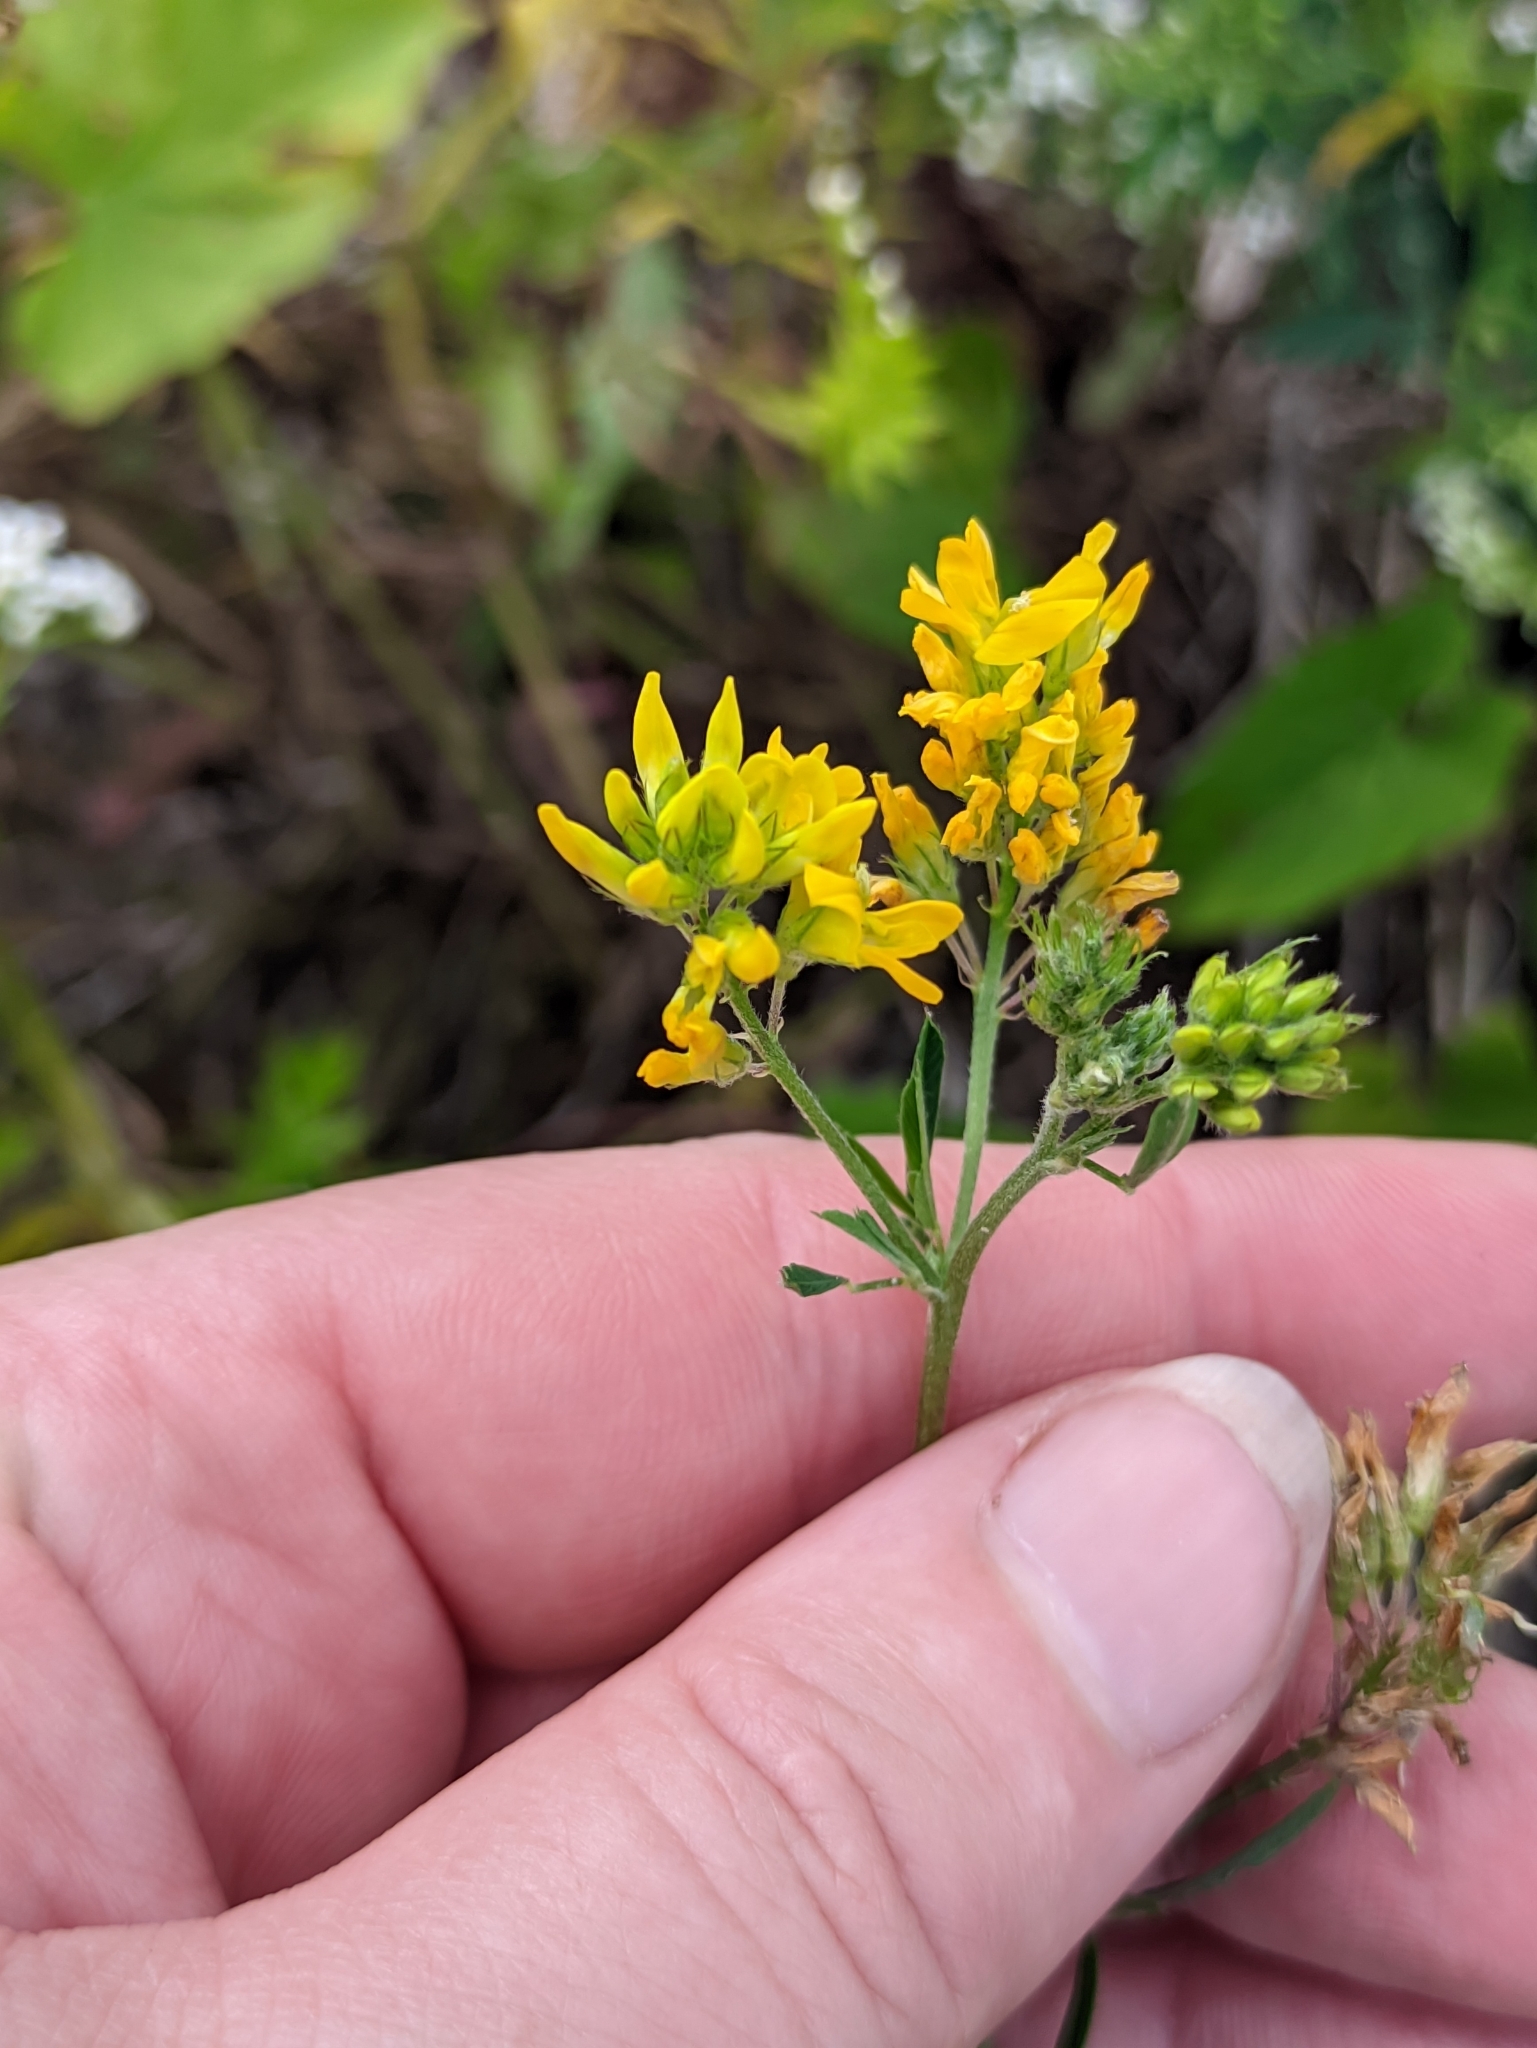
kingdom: Plantae
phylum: Tracheophyta
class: Magnoliopsida
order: Fabales
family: Fabaceae
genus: Medicago
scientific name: Medicago falcata
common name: Sickle medick
